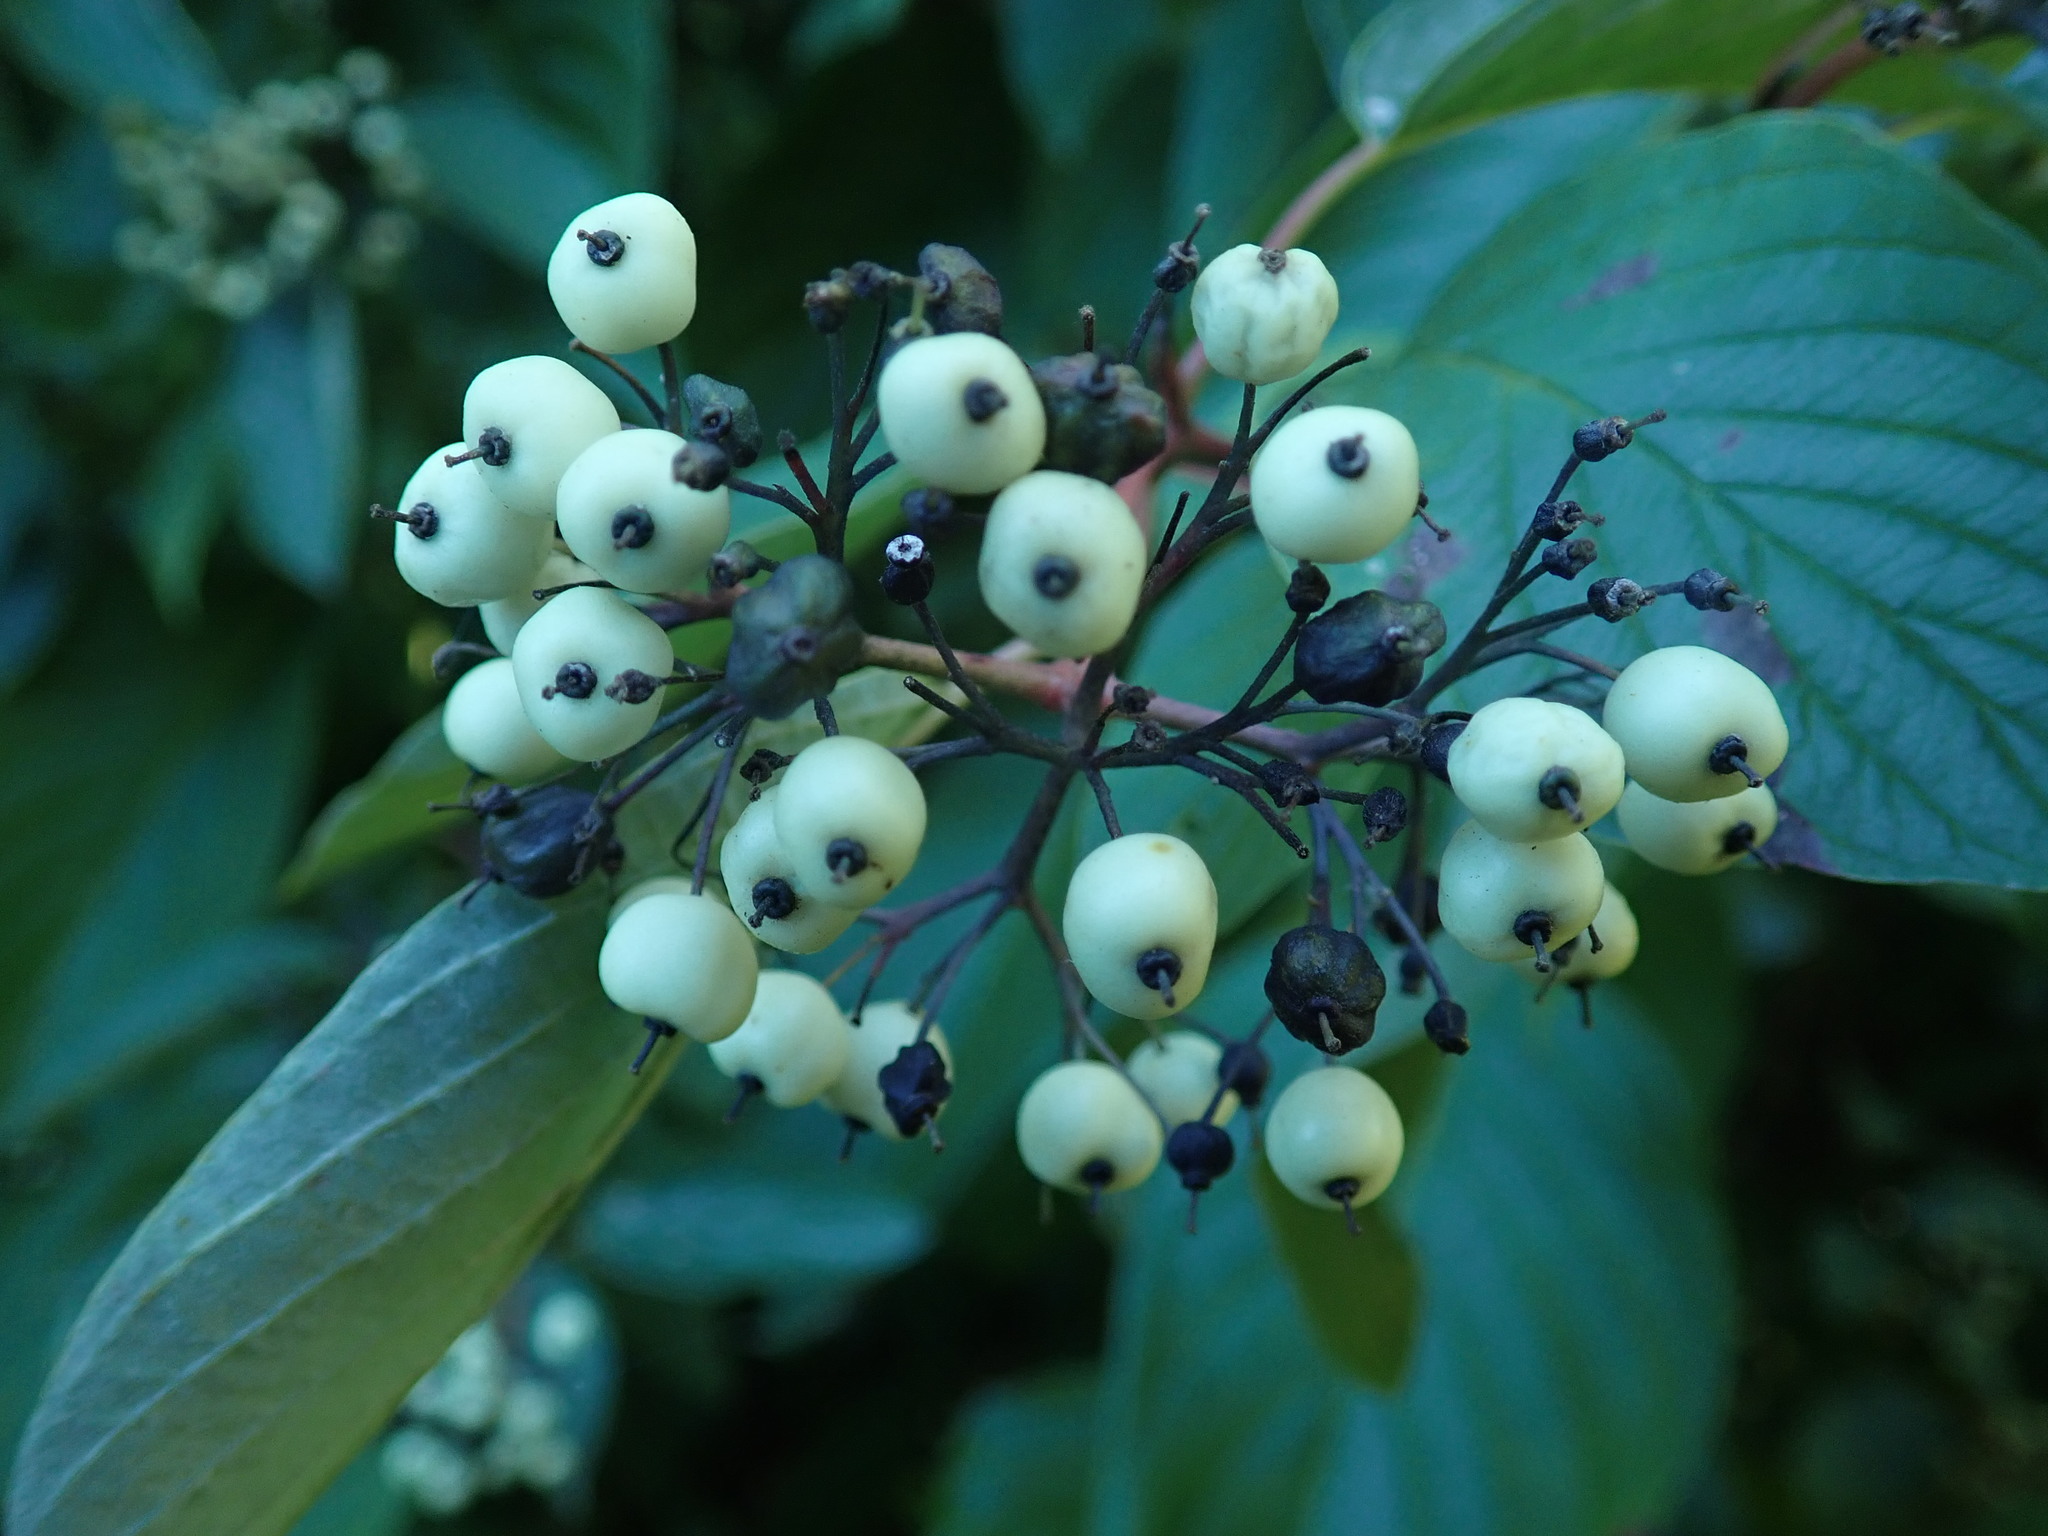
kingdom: Plantae
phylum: Tracheophyta
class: Magnoliopsida
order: Cornales
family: Cornaceae
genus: Cornus
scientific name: Cornus sericea
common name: Red-osier dogwood
